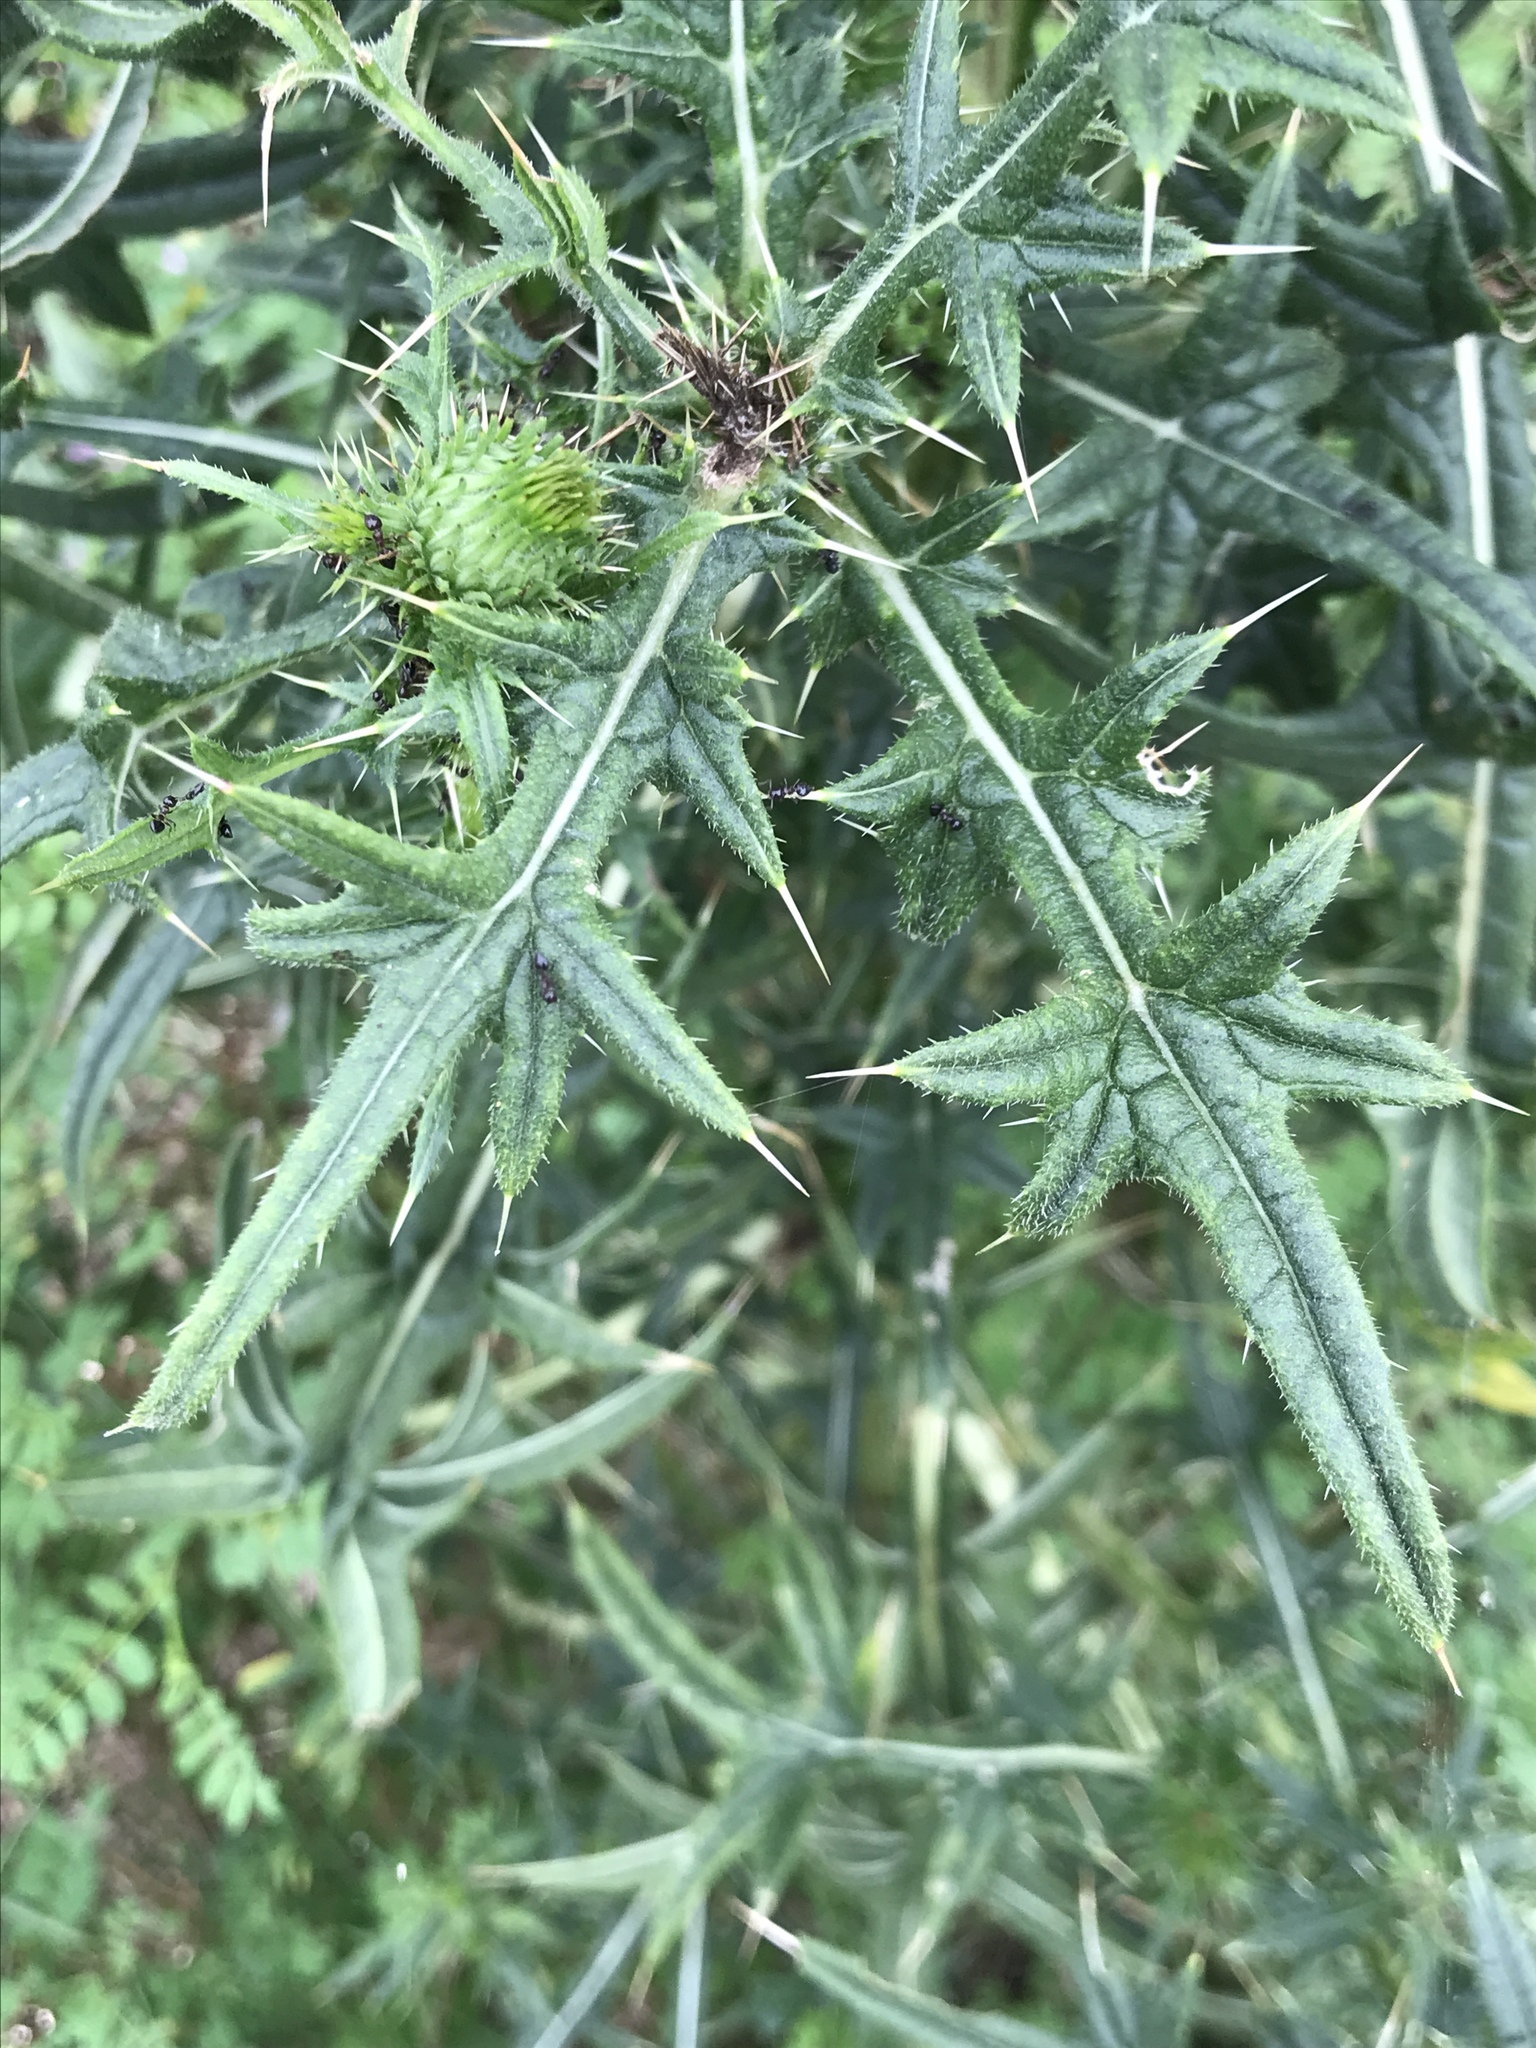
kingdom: Plantae
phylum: Tracheophyta
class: Magnoliopsida
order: Asterales
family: Asteraceae
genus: Cirsium
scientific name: Cirsium vulgare
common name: Bull thistle
